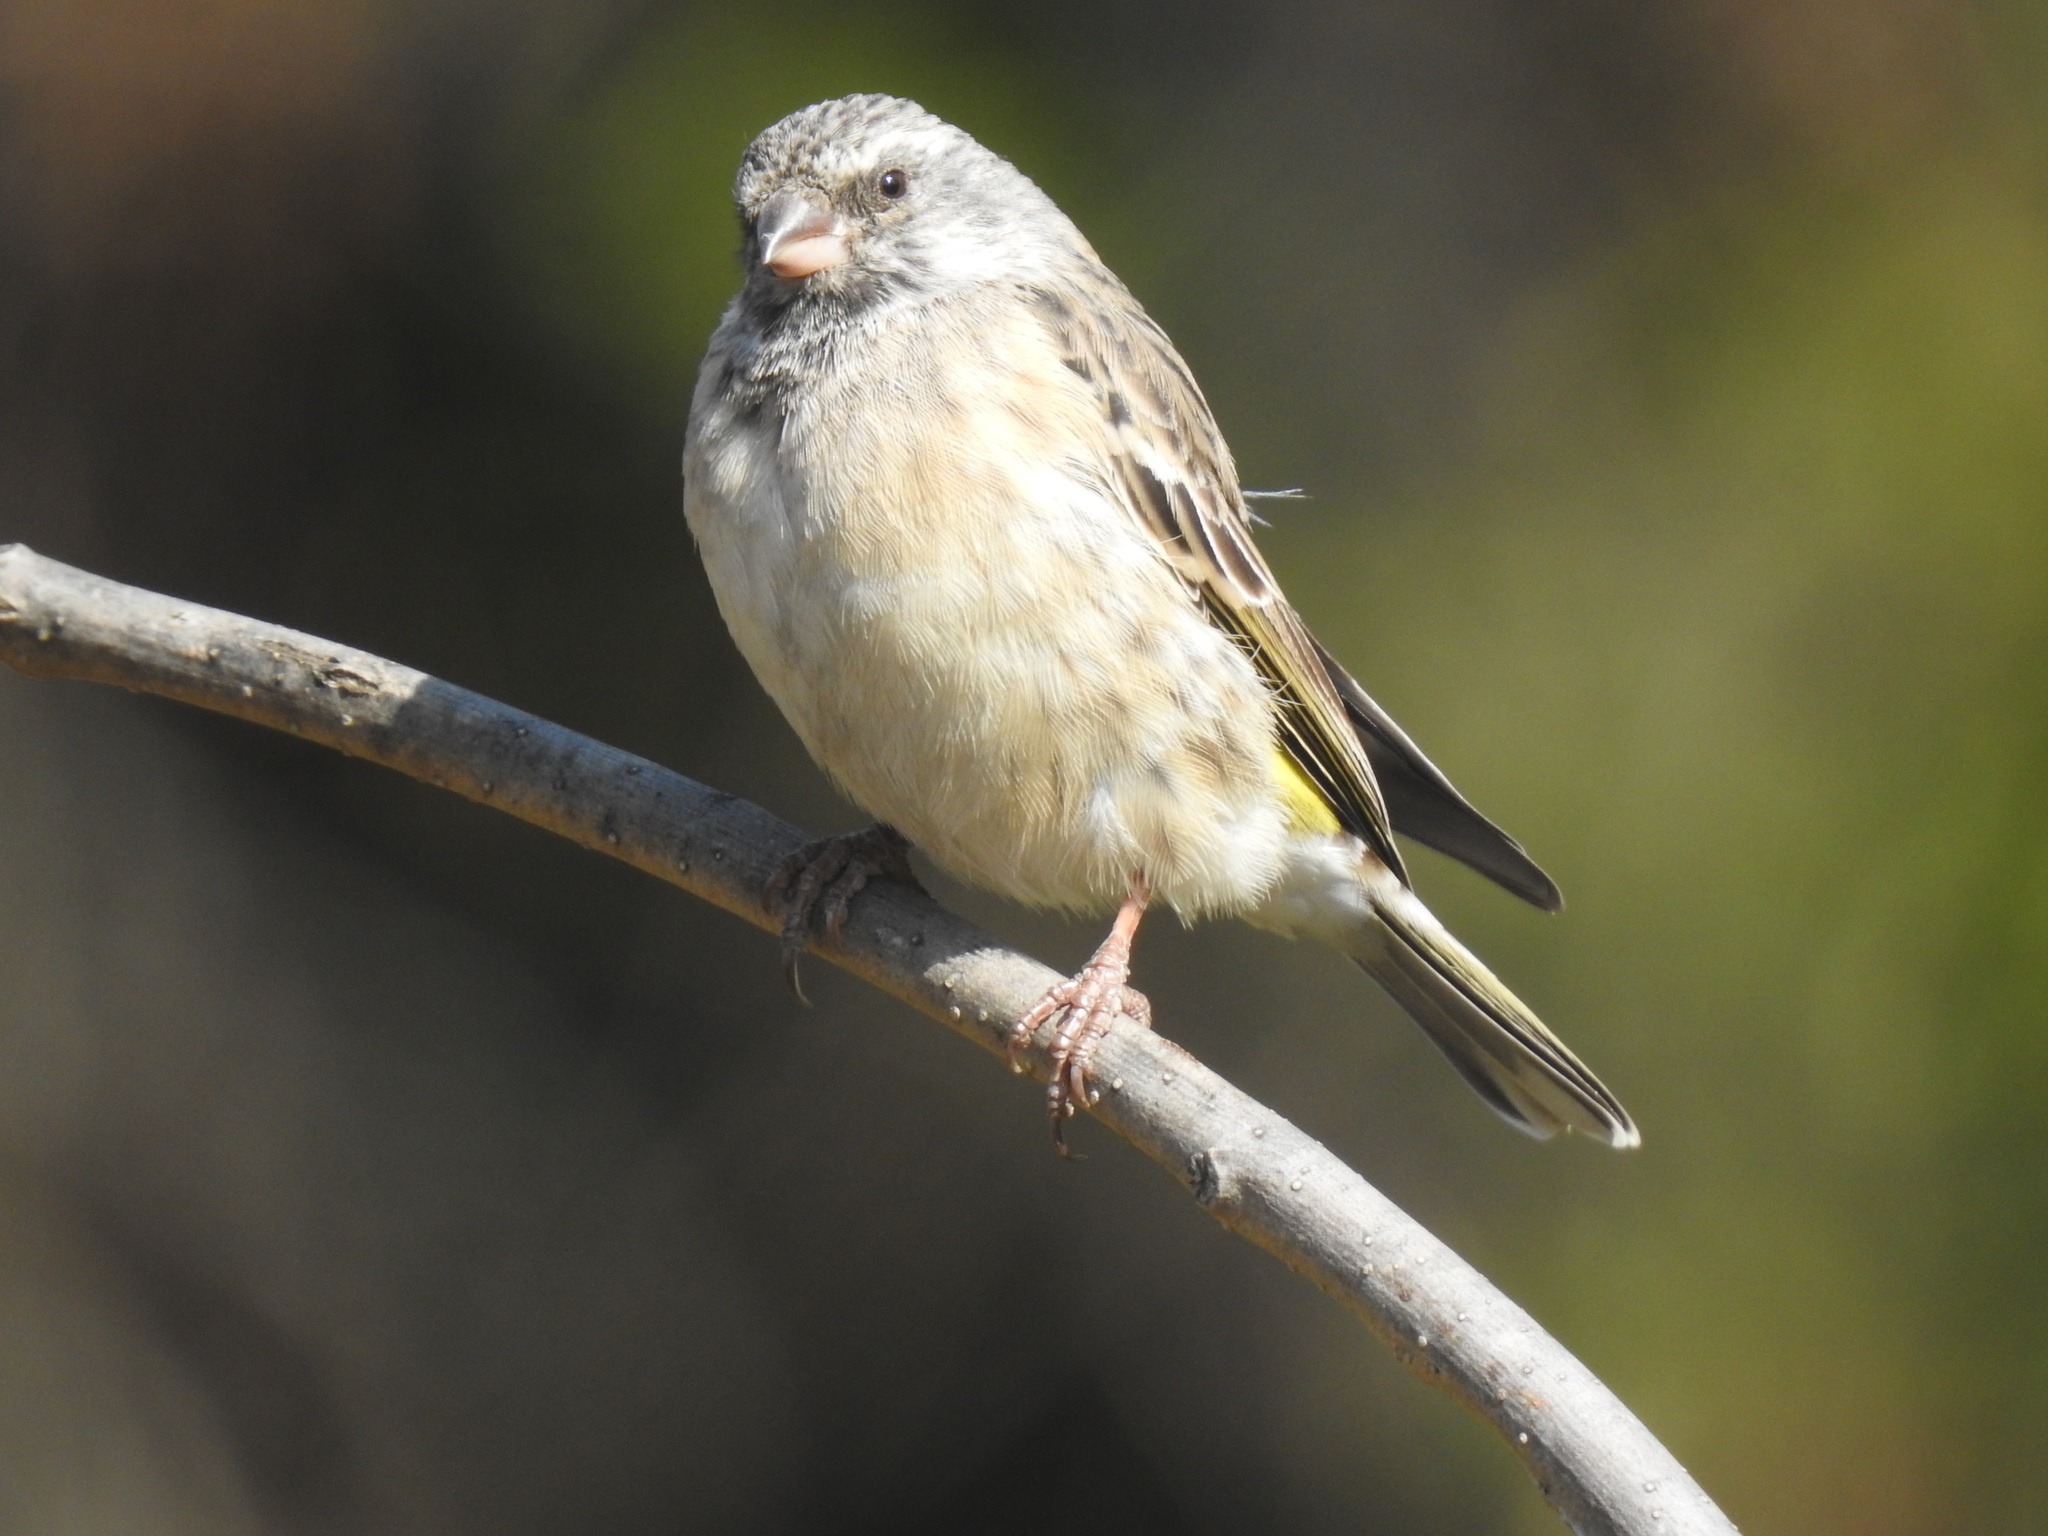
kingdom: Animalia
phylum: Chordata
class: Aves
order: Passeriformes
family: Fringillidae
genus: Crithagra
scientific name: Crithagra atrogularis
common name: Black-throated canary
